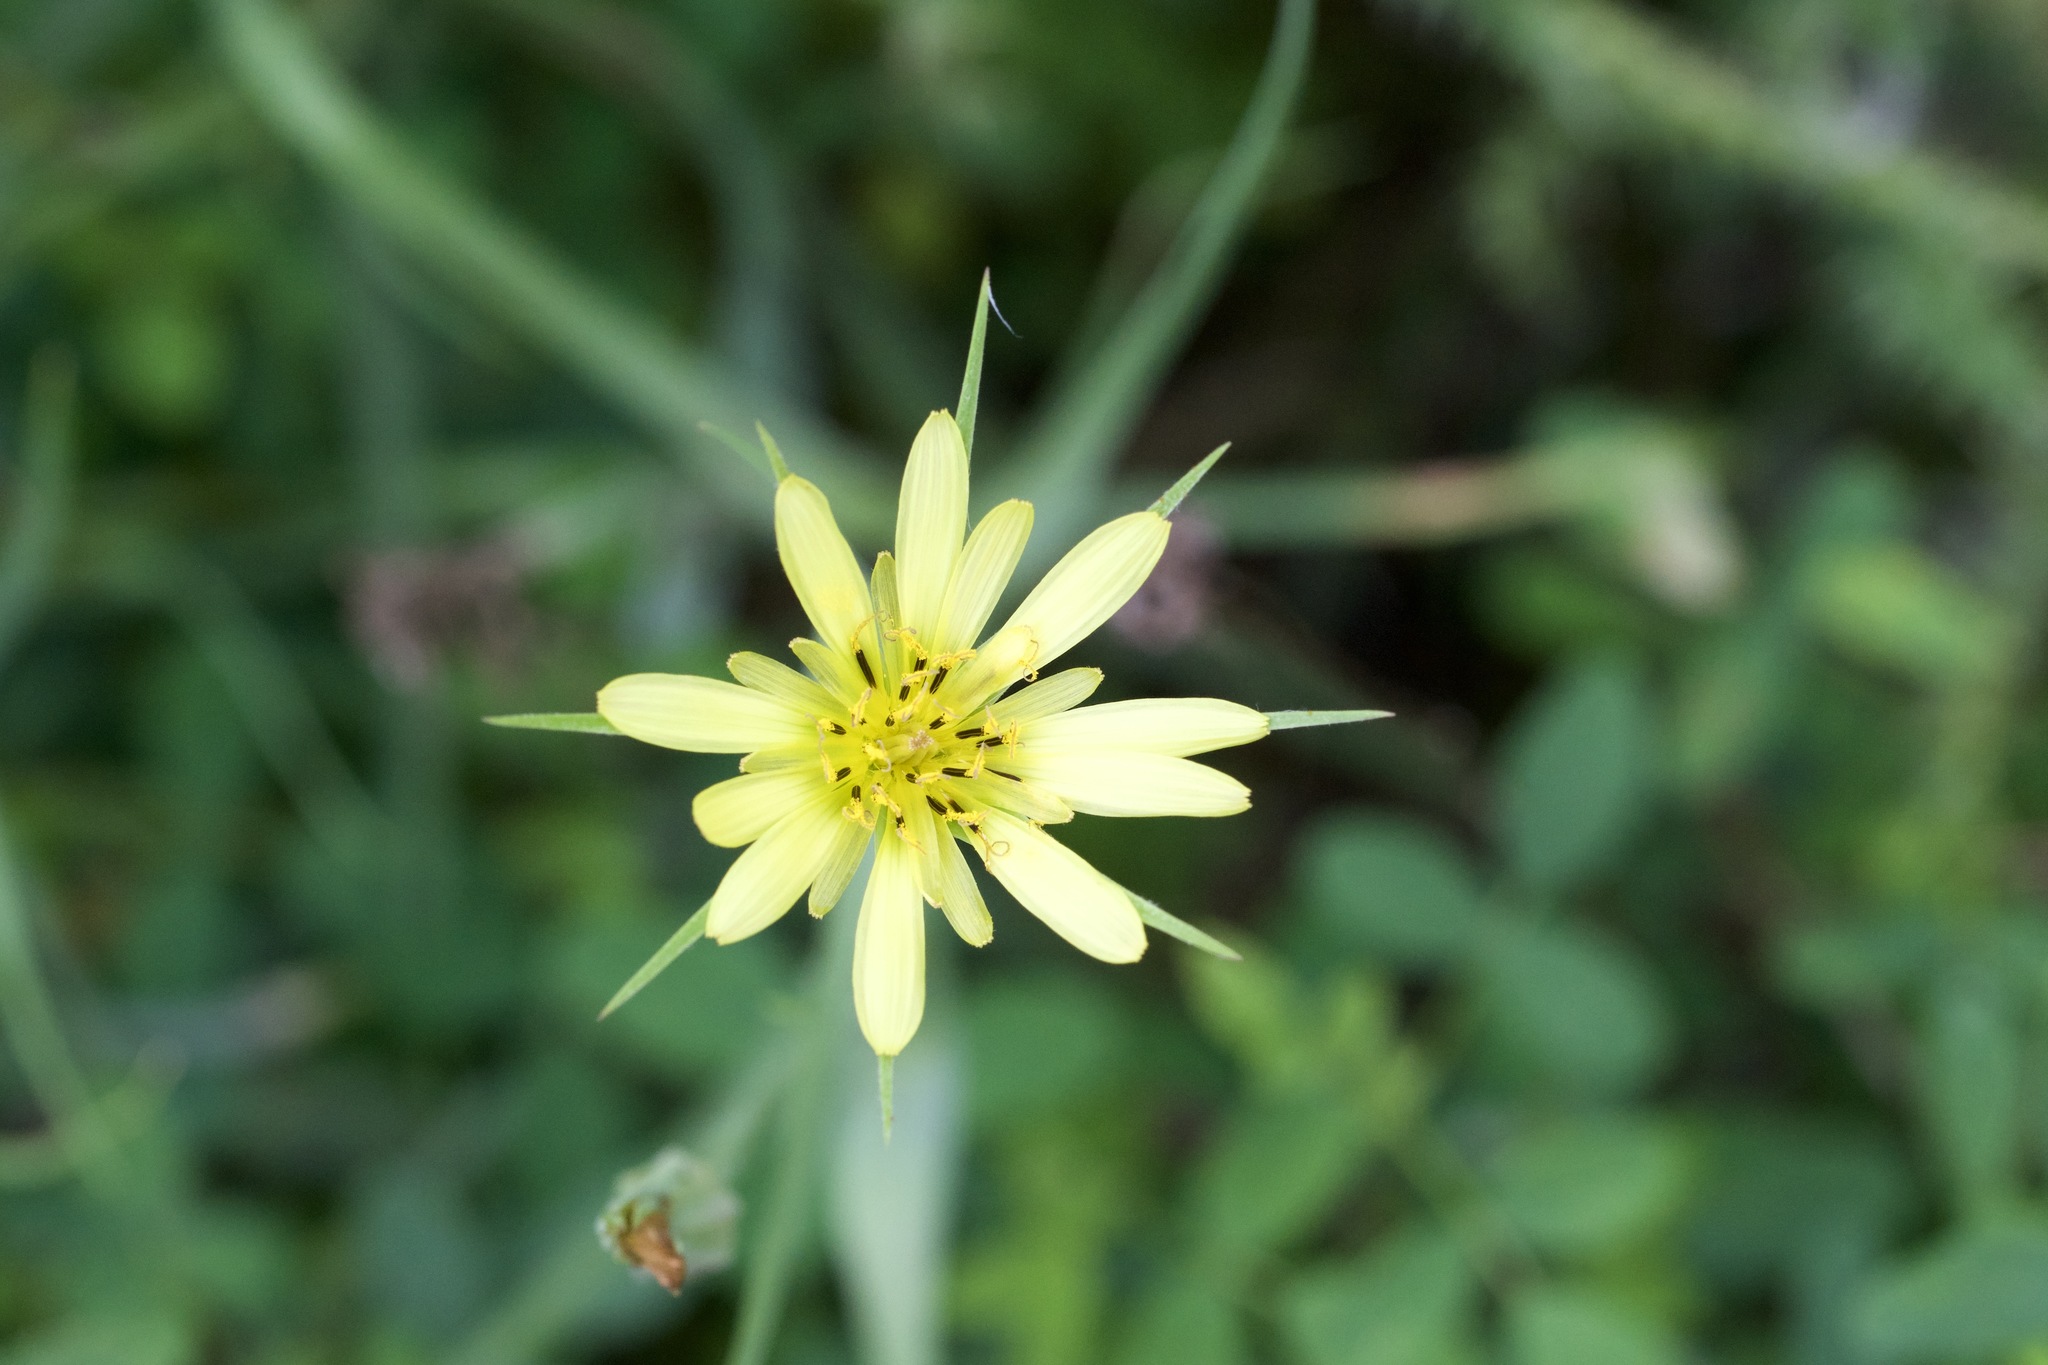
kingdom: Plantae
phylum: Tracheophyta
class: Magnoliopsida
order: Asterales
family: Asteraceae
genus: Tragopogon
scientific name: Tragopogon dubius
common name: Yellow salsify
